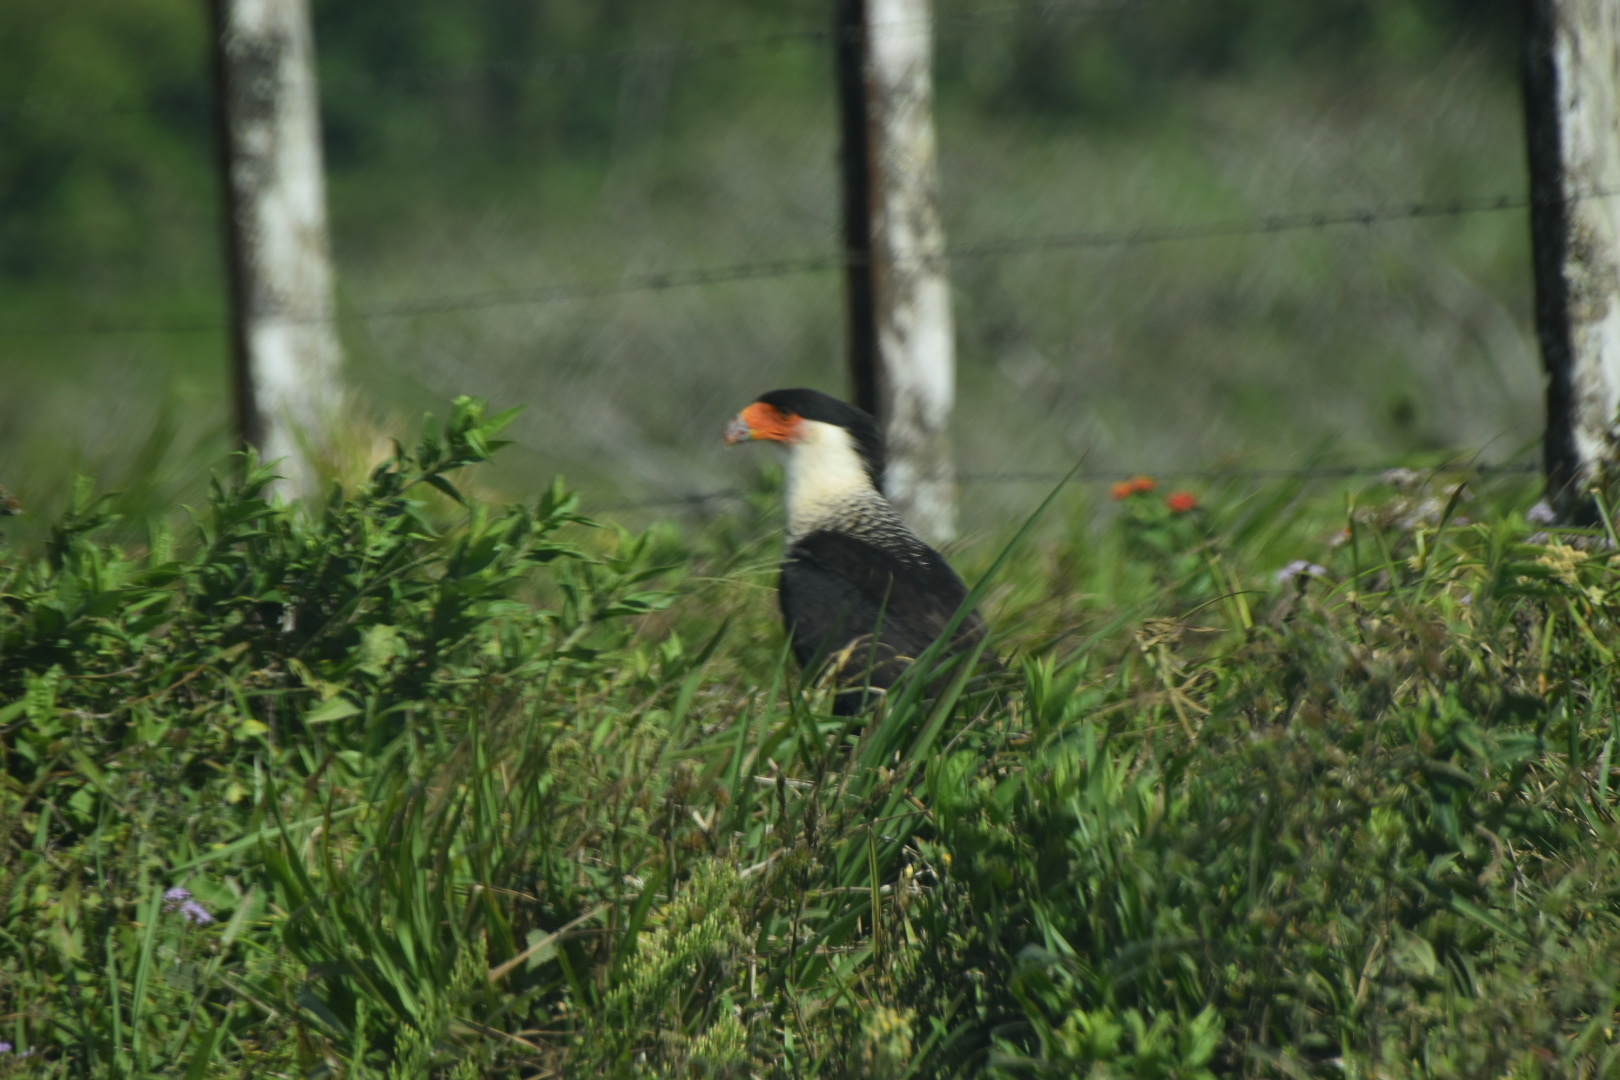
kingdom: Animalia
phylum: Chordata
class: Aves
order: Falconiformes
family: Falconidae
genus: Caracara
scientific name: Caracara plancus
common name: Southern caracara
